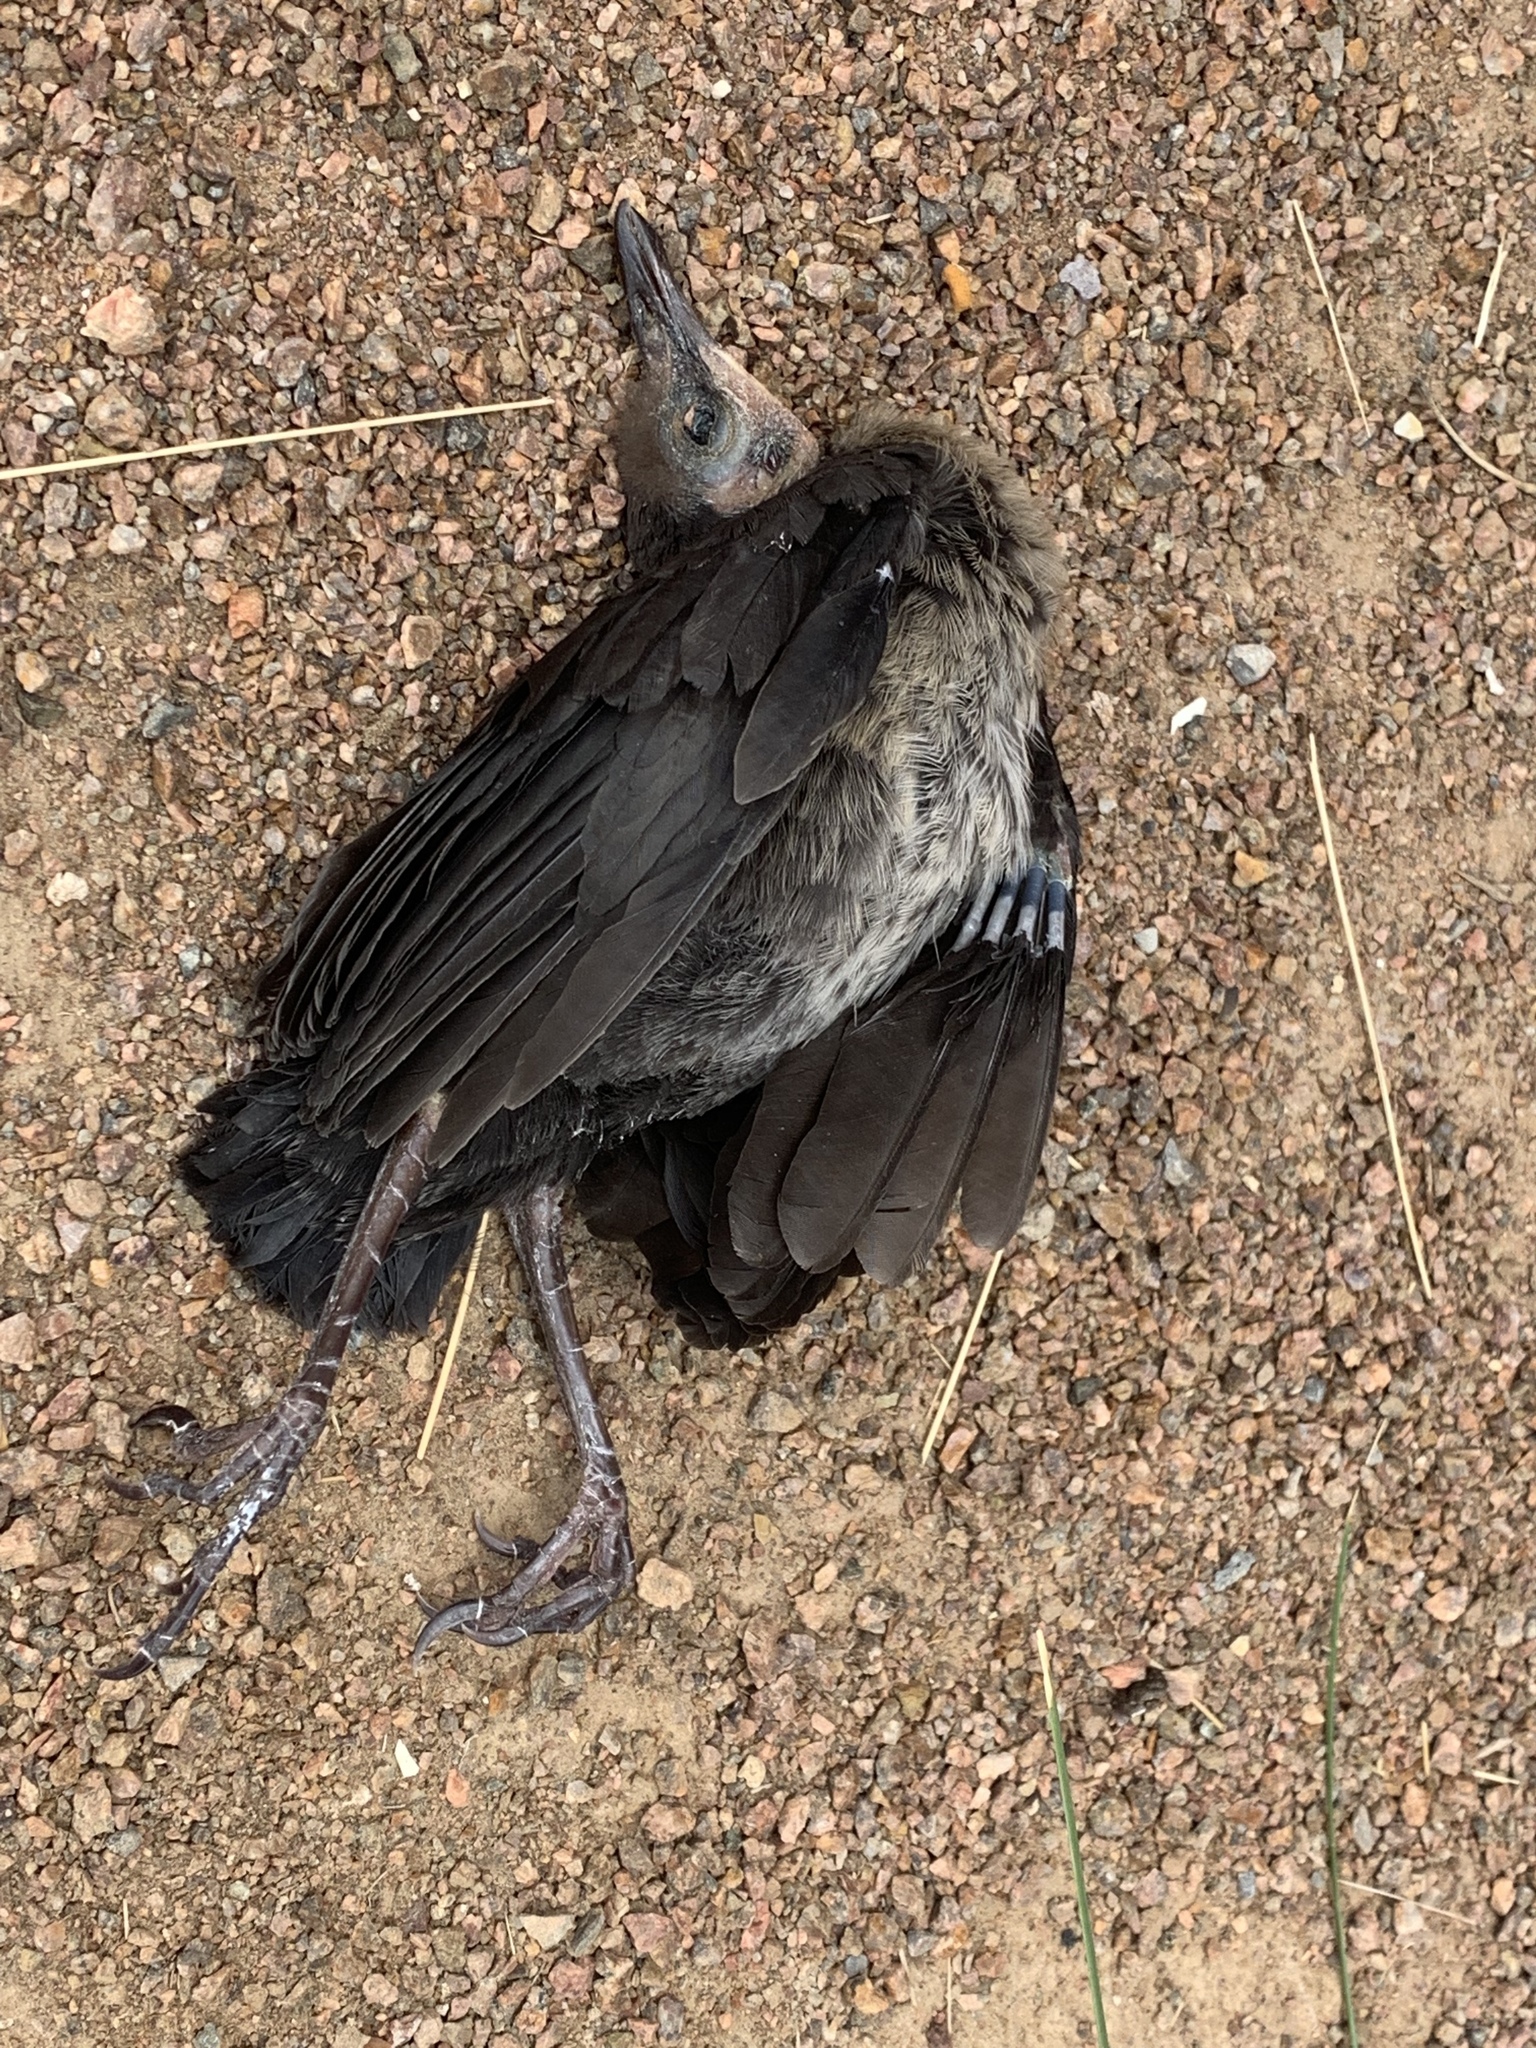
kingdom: Animalia
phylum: Chordata
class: Aves
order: Passeriformes
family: Icteridae
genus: Quiscalus
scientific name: Quiscalus mexicanus
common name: Great-tailed grackle
